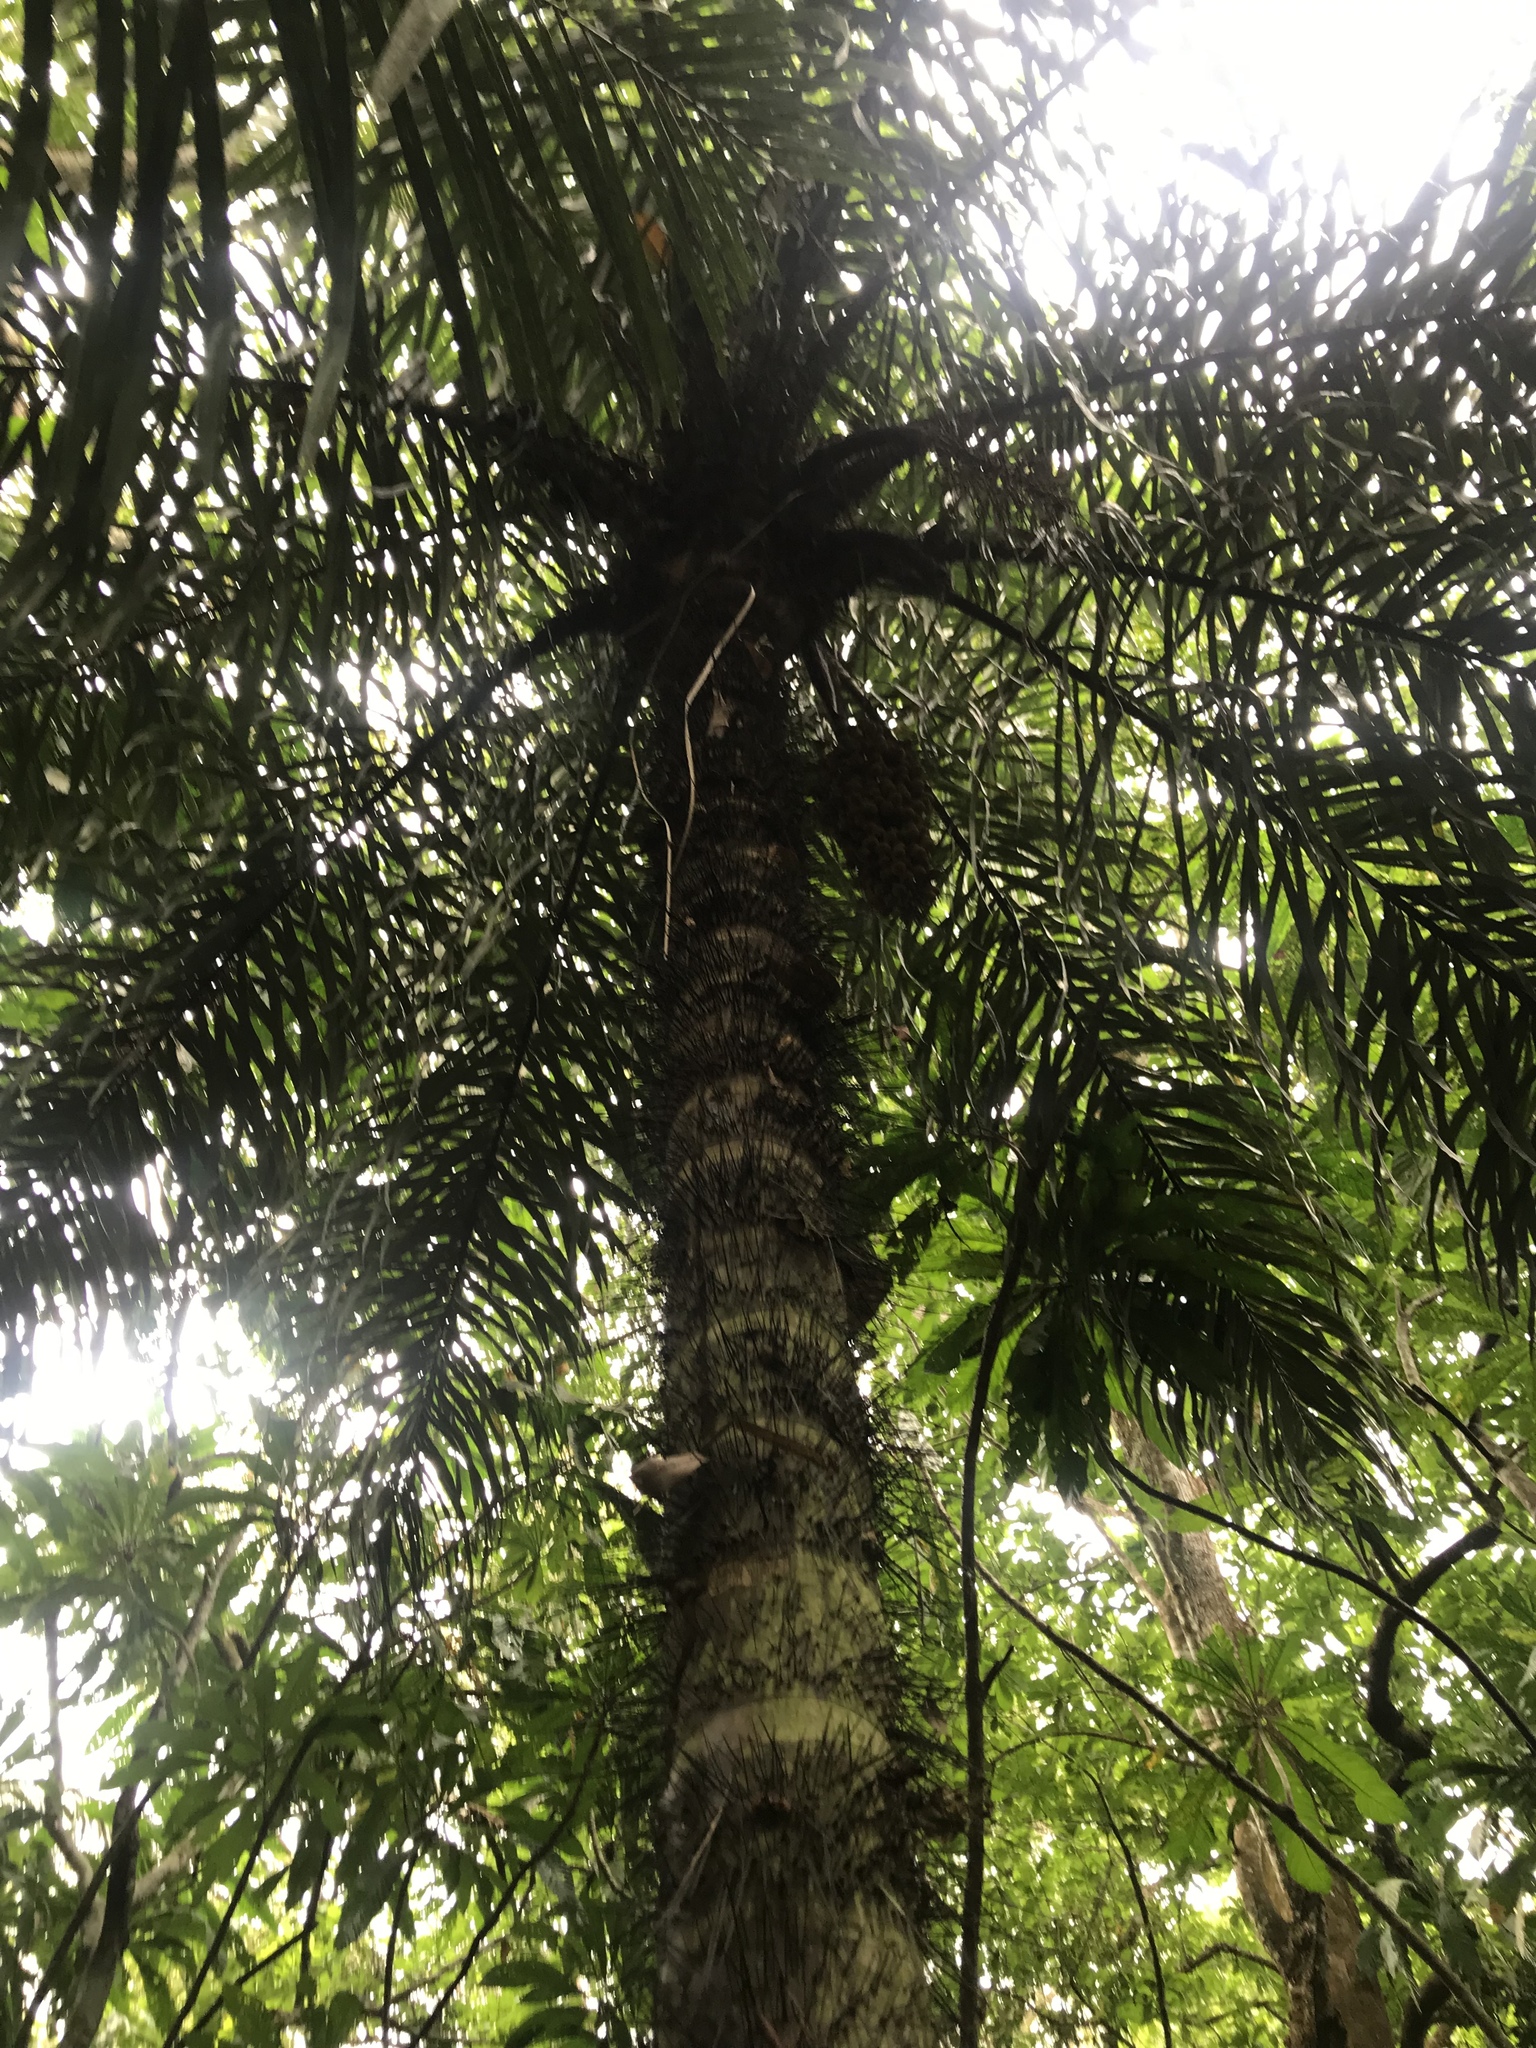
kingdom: Plantae
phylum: Tracheophyta
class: Liliopsida
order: Arecales
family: Arecaceae
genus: Astrocaryum
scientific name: Astrocaryum standleyanum
